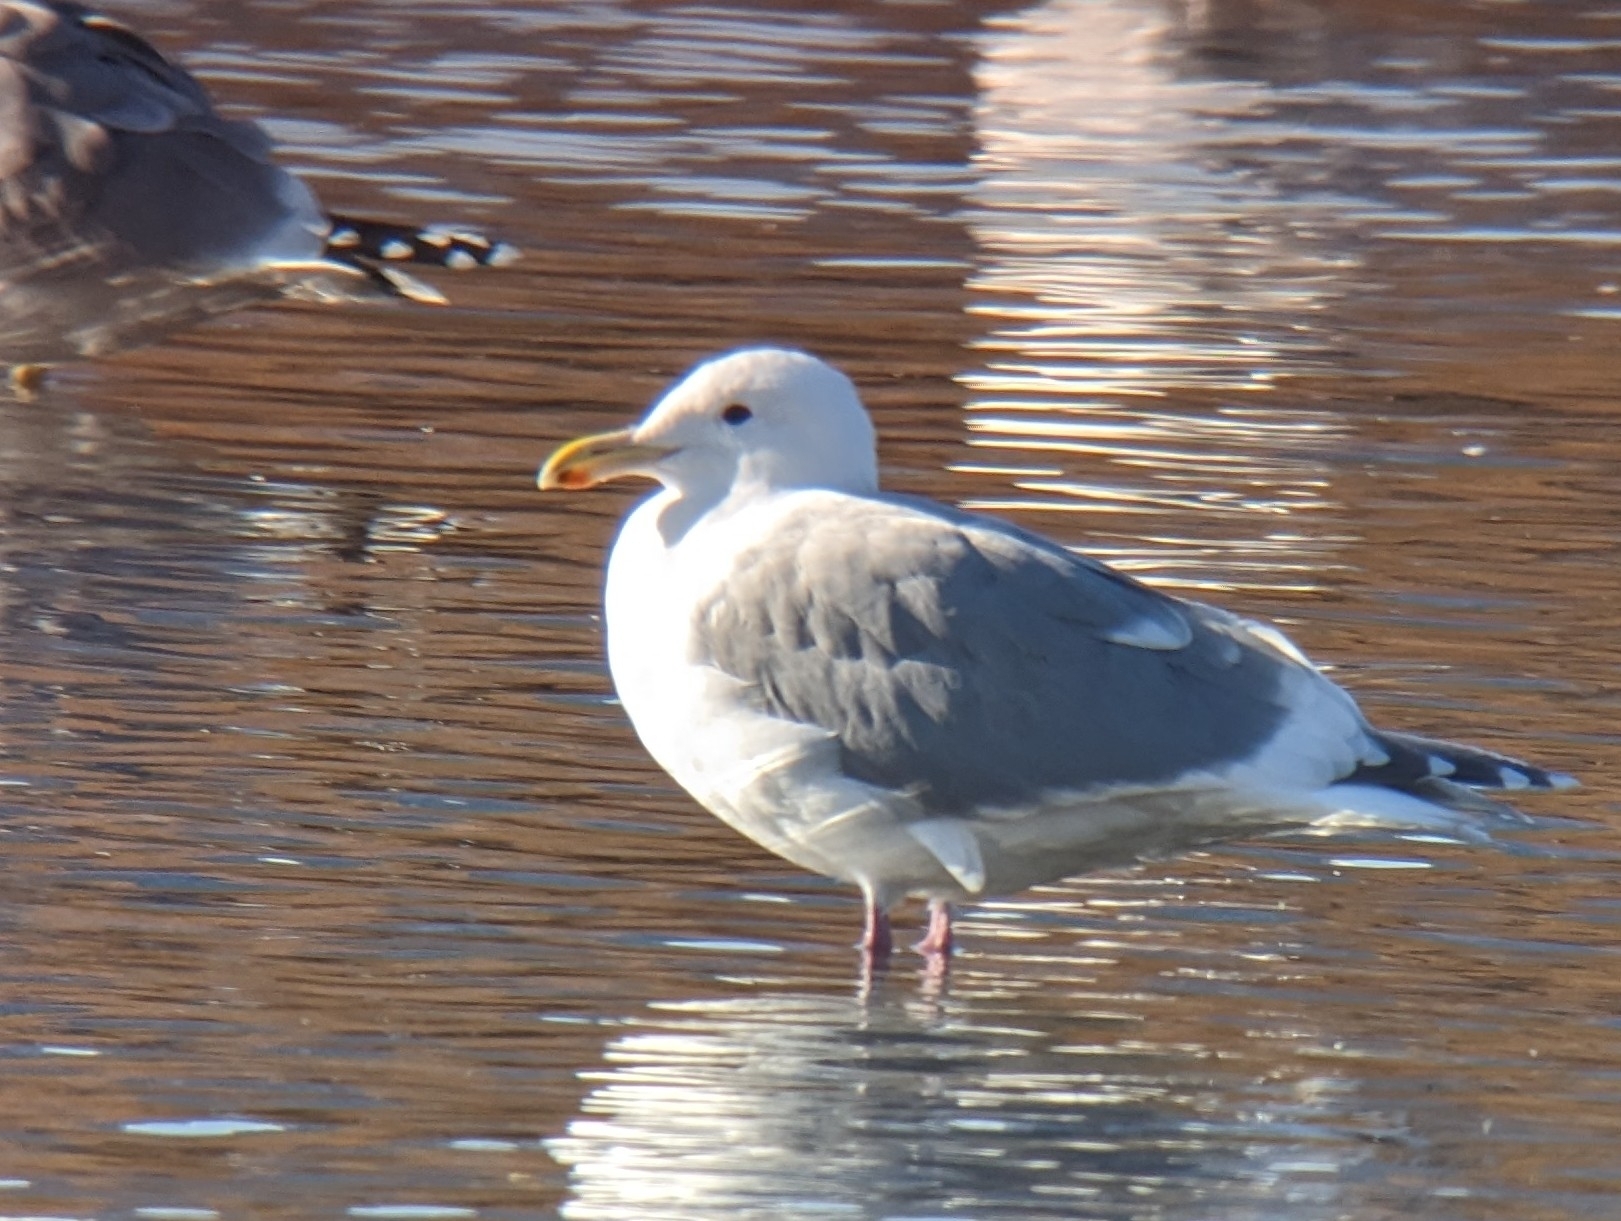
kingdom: Animalia
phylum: Chordata
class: Aves
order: Charadriiformes
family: Laridae
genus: Larus
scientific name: Larus glaucoides
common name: Iceland gull
